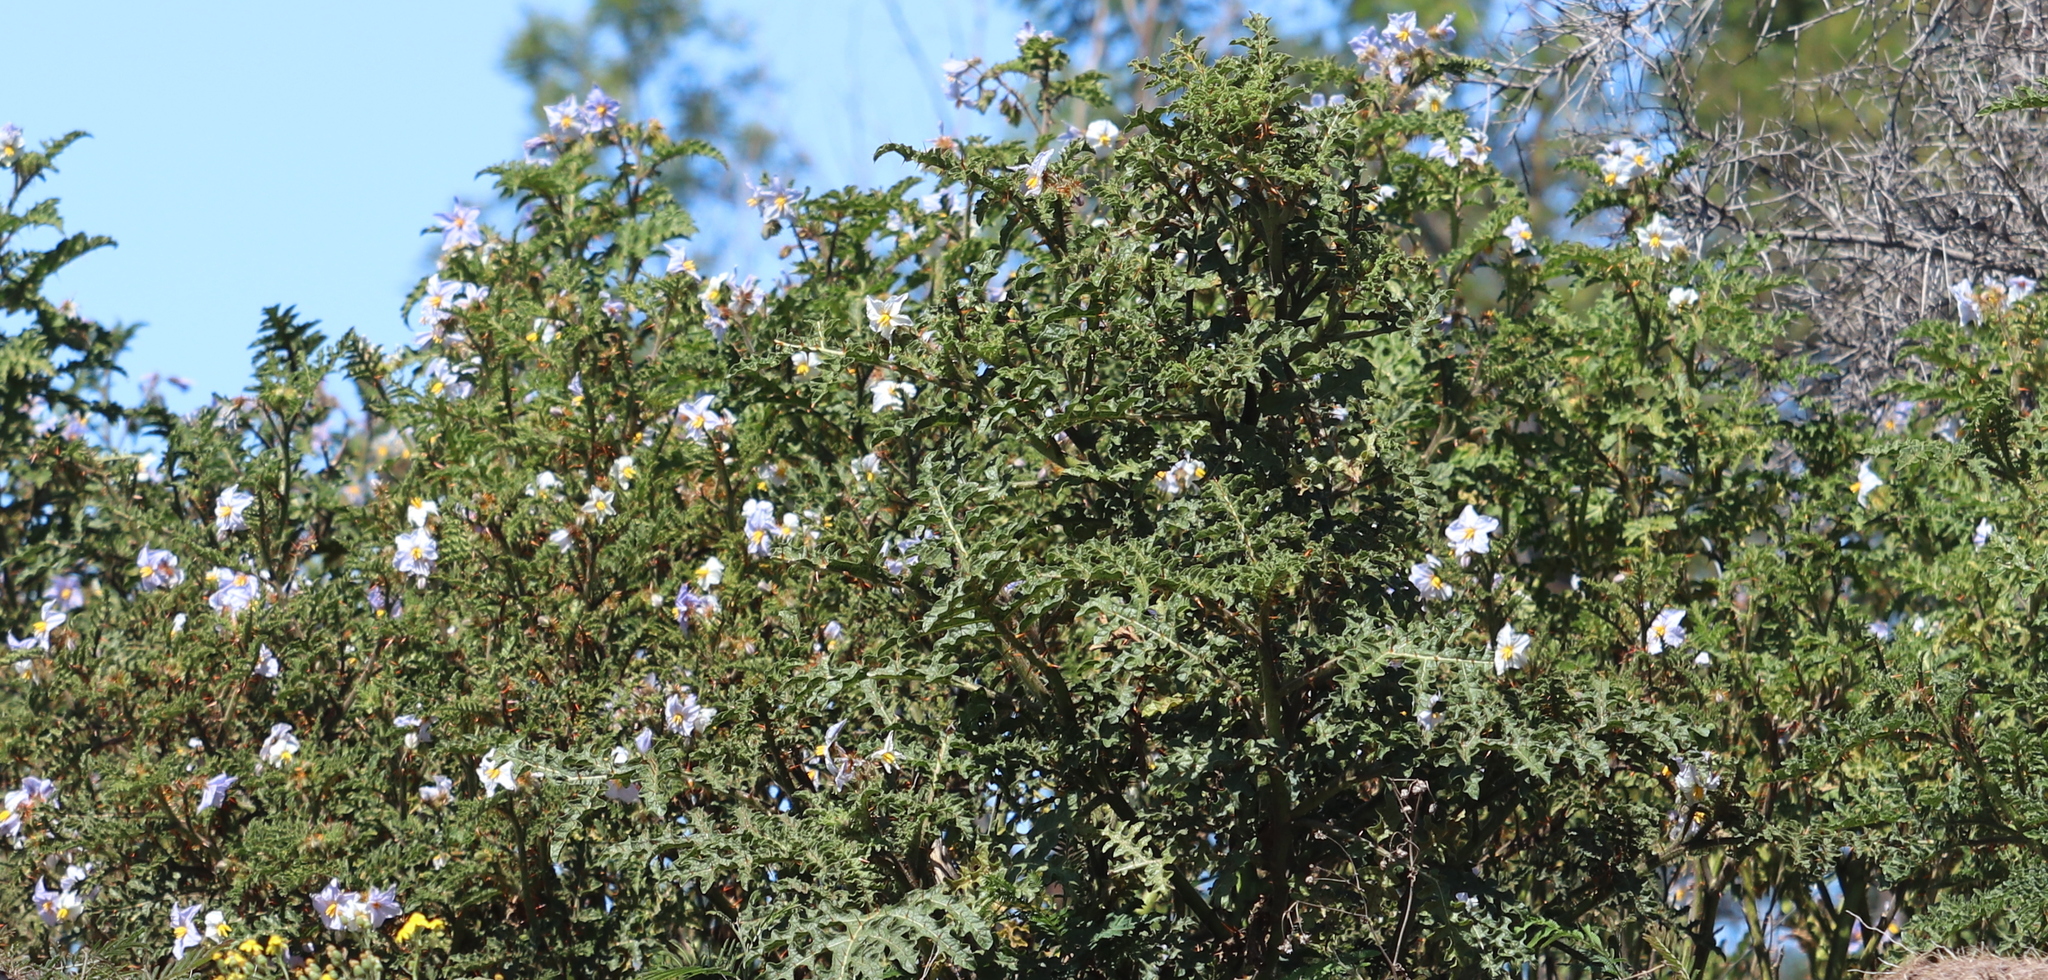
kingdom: Plantae
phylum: Tracheophyta
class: Magnoliopsida
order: Solanales
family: Solanaceae
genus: Solanum
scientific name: Solanum sisymbriifolium
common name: Red buffalo-bur
